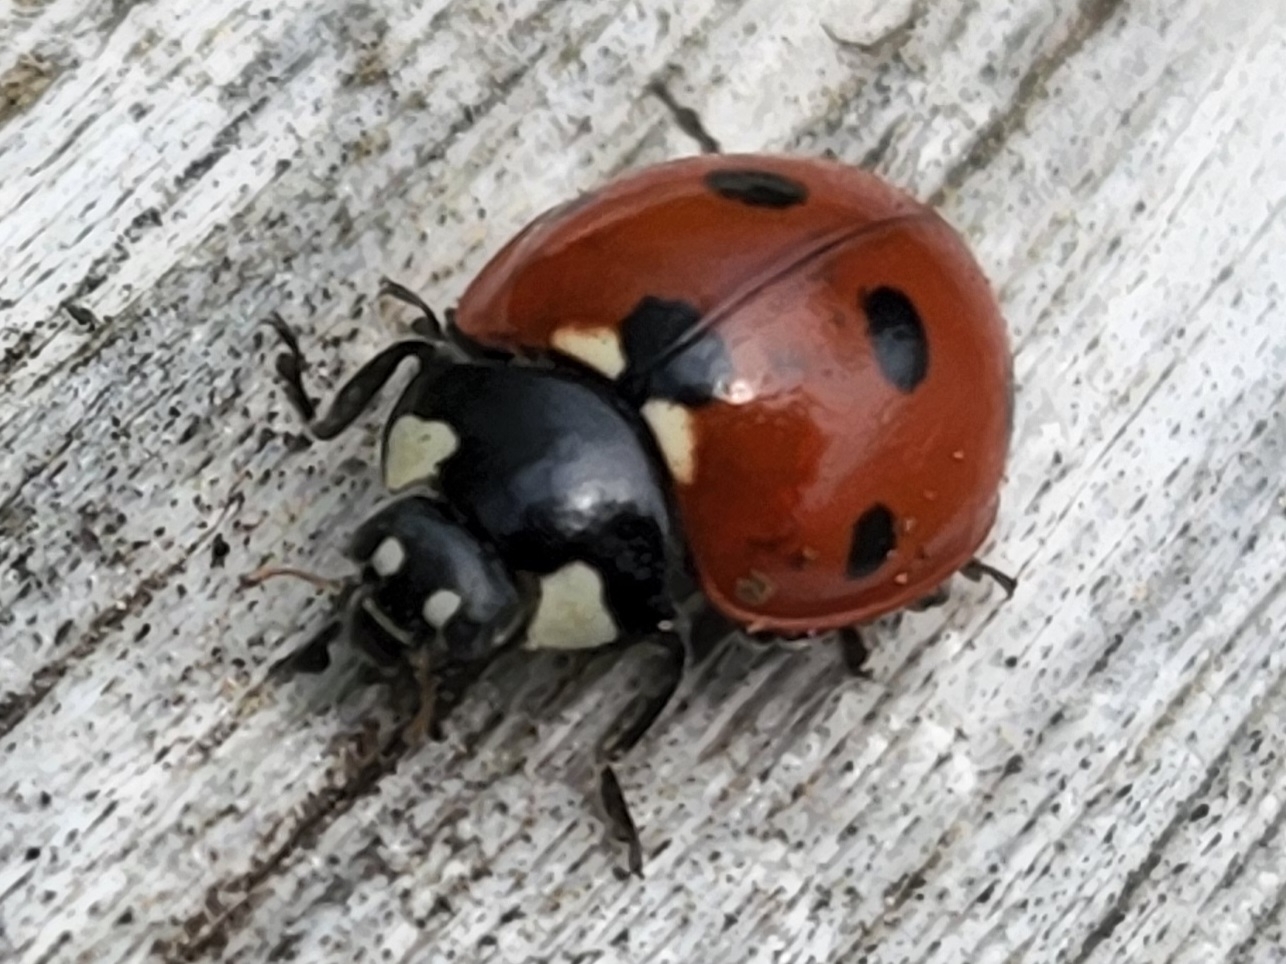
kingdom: Animalia
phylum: Arthropoda
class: Insecta
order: Coleoptera
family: Coccinellidae
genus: Coccinella
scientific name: Coccinella septempunctata
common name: Sevenspotted lady beetle
